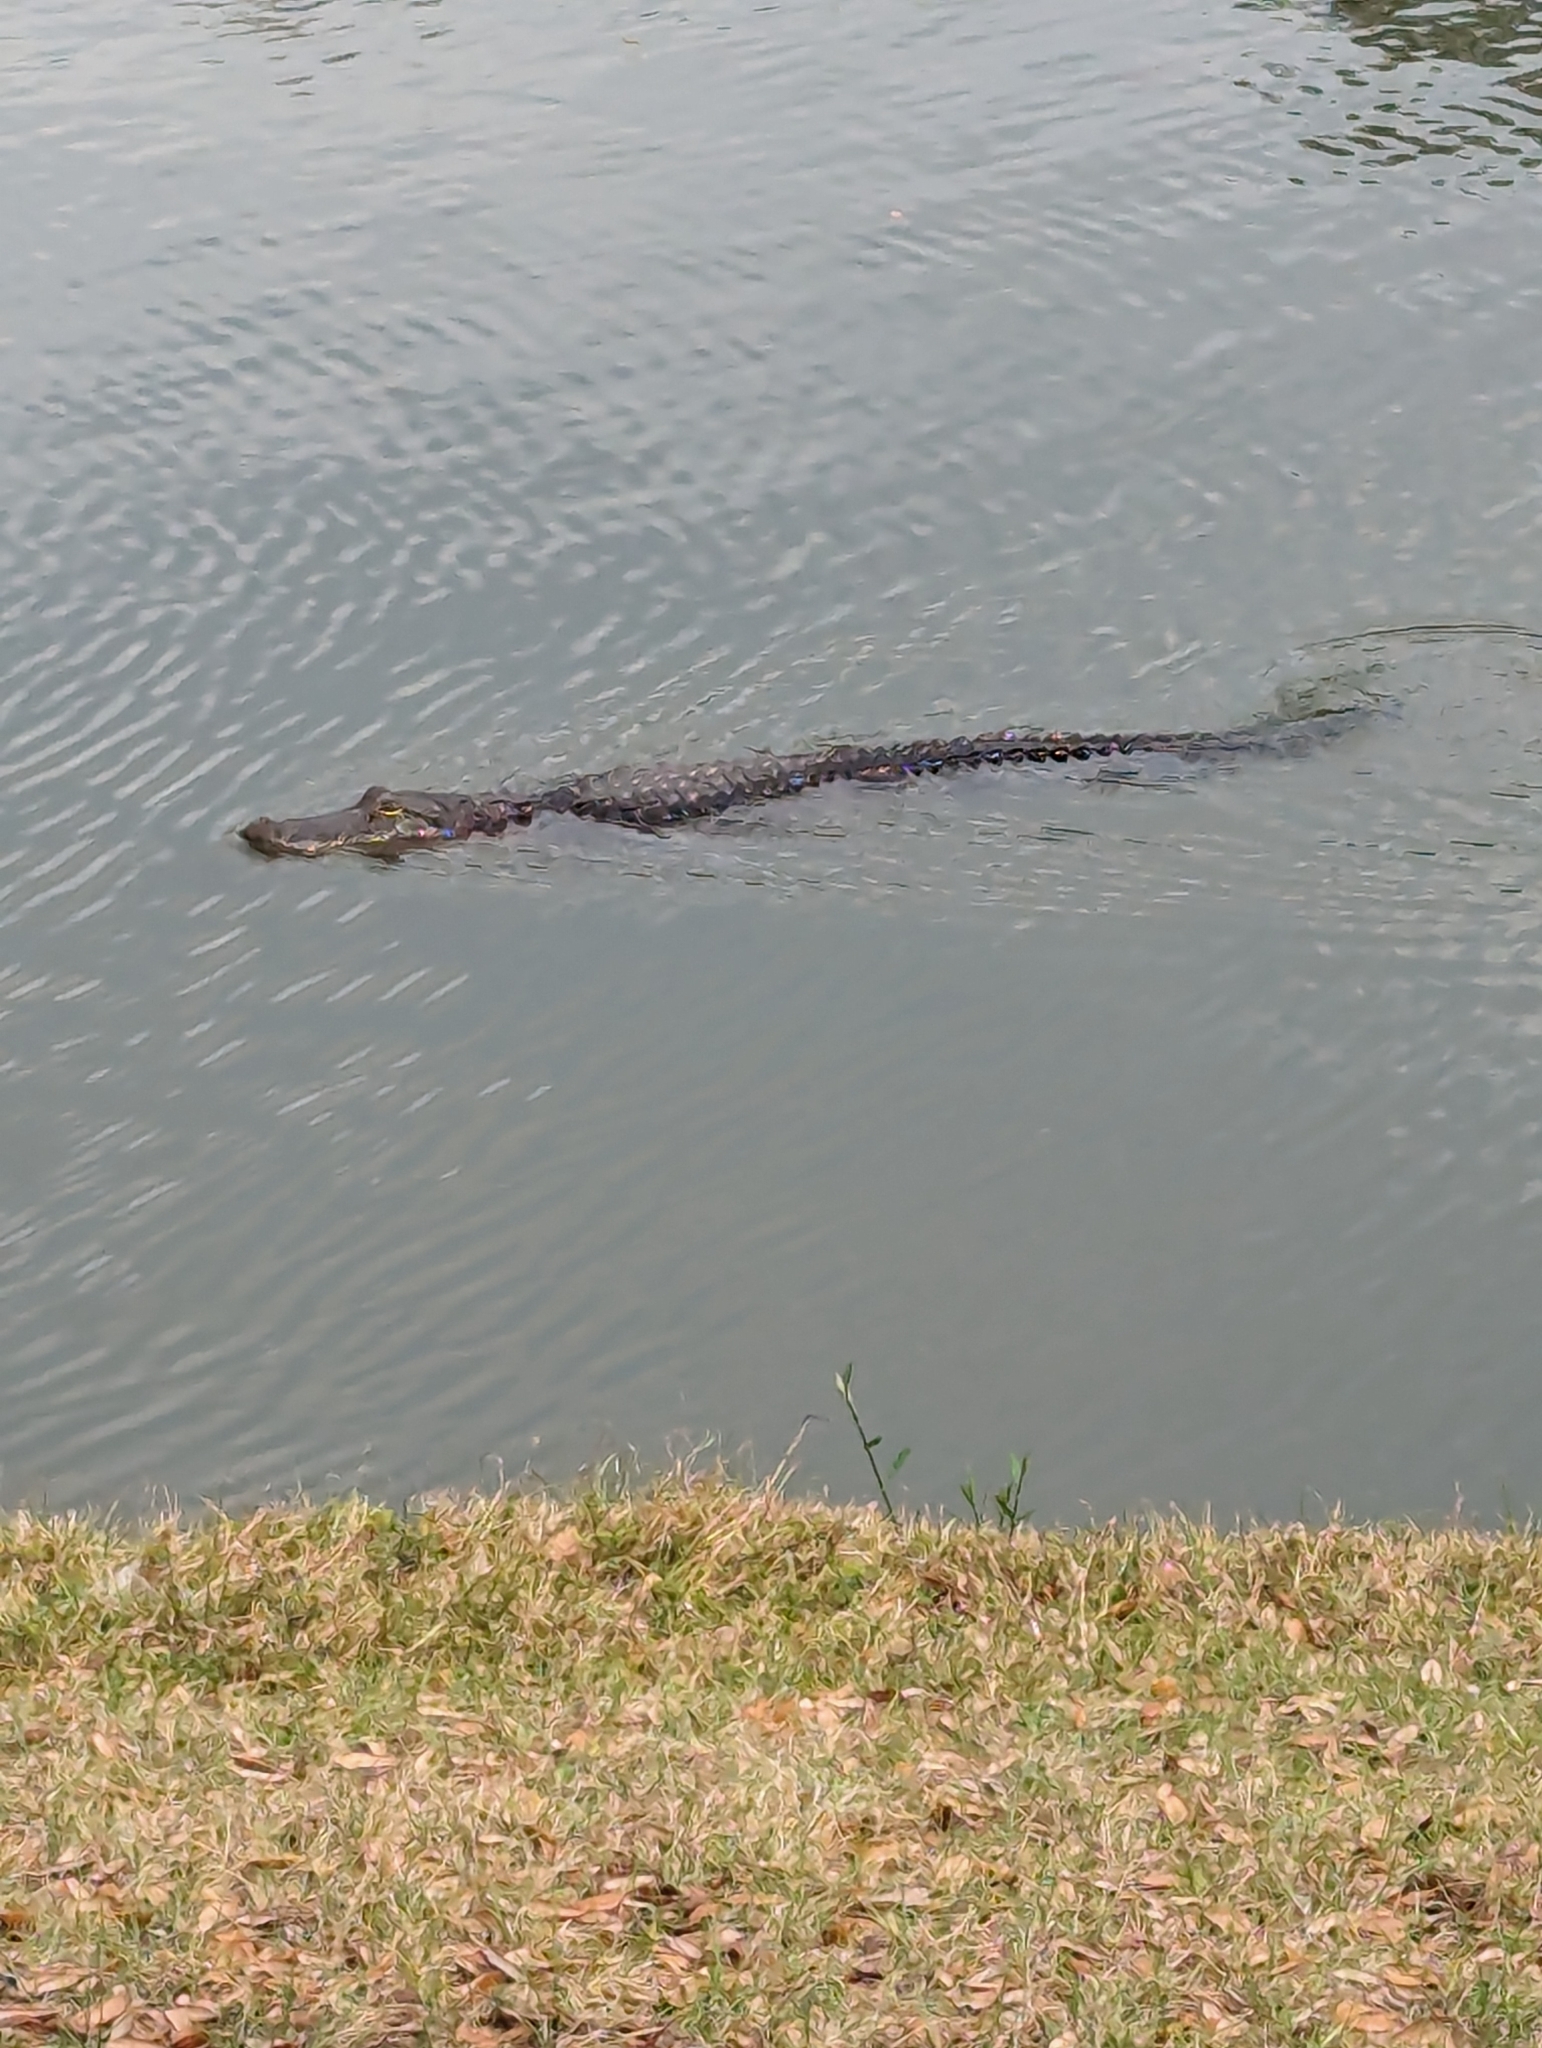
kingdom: Animalia
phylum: Chordata
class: Crocodylia
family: Alligatoridae
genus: Alligator
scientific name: Alligator mississippiensis
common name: American alligator
